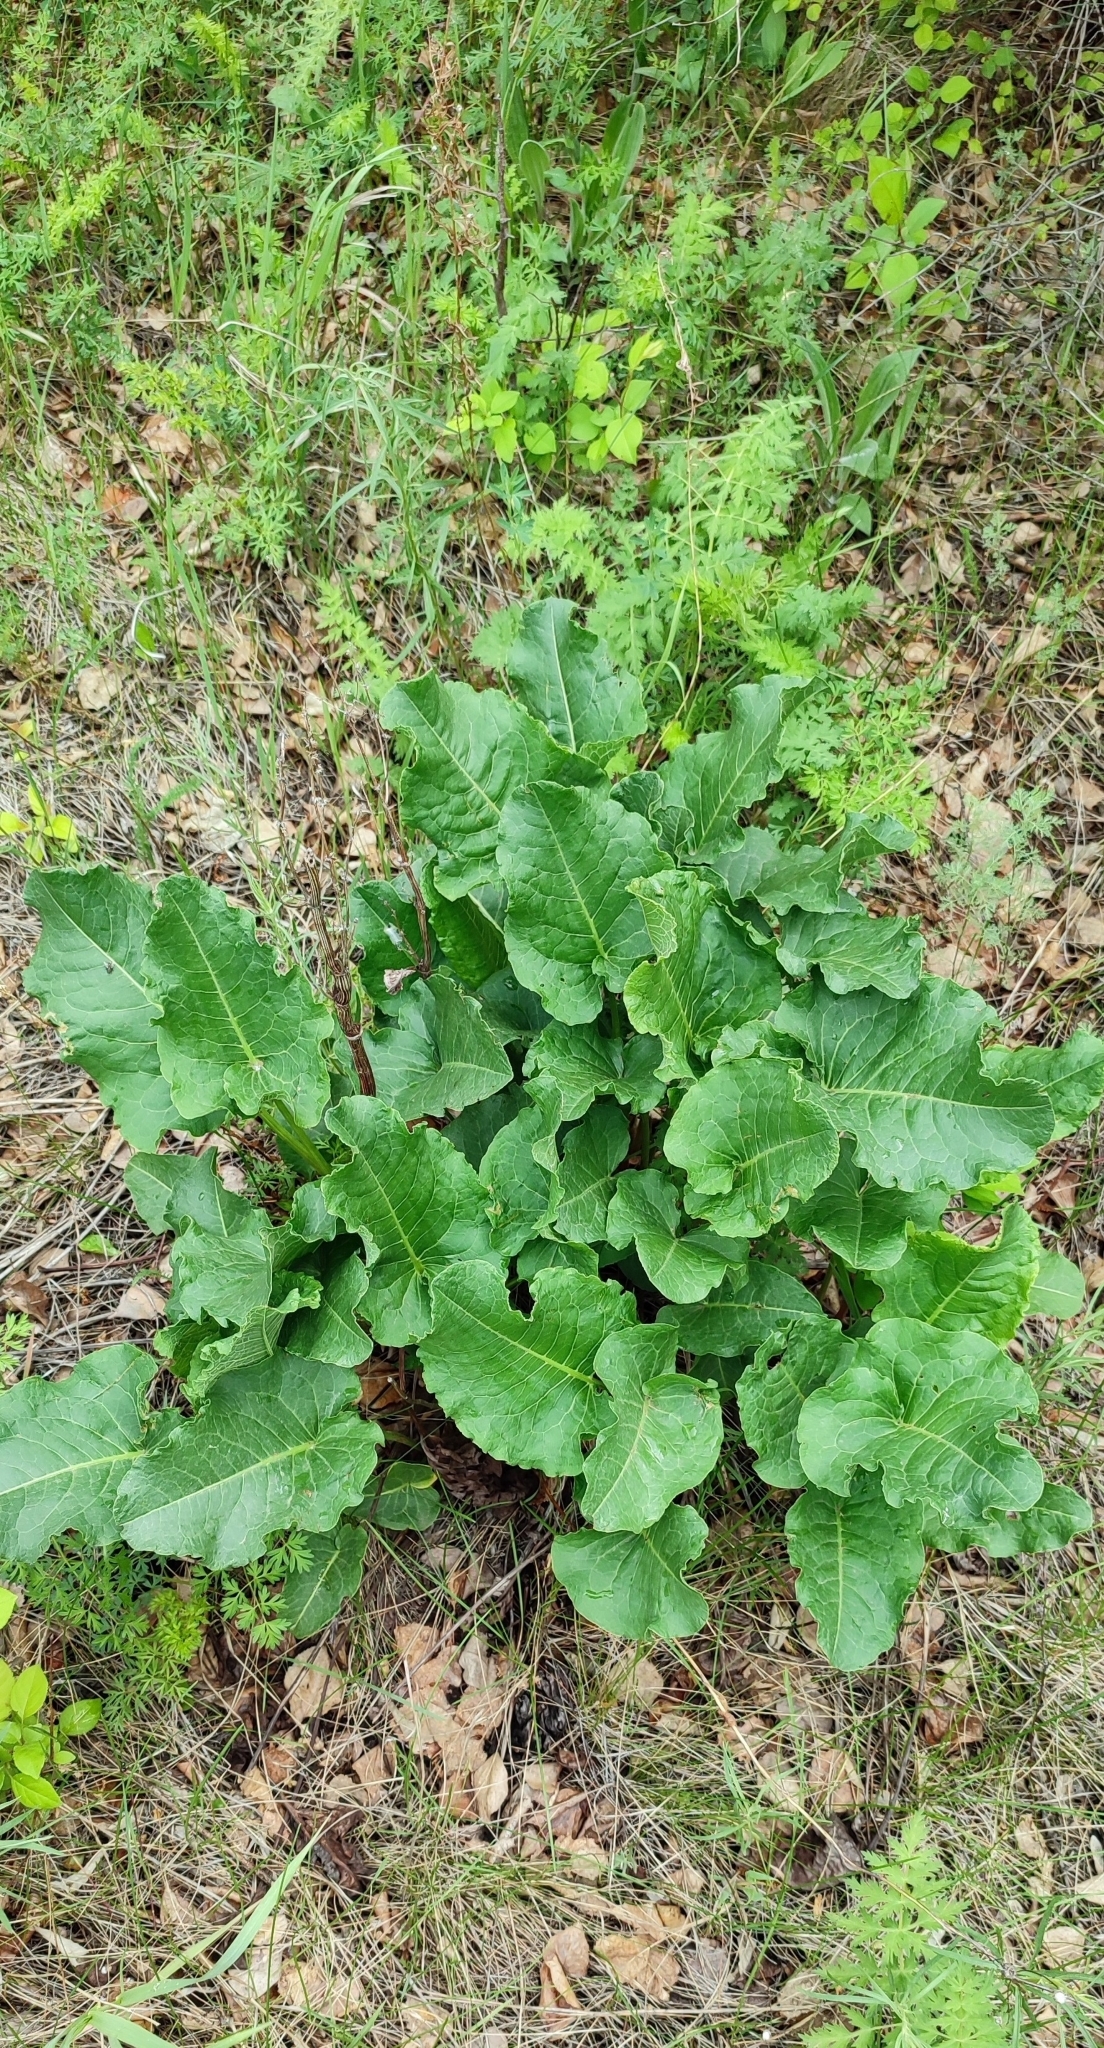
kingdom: Plantae
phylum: Tracheophyta
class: Magnoliopsida
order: Caryophyllales
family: Polygonaceae
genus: Rumex
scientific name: Rumex confertus
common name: Russian dock
